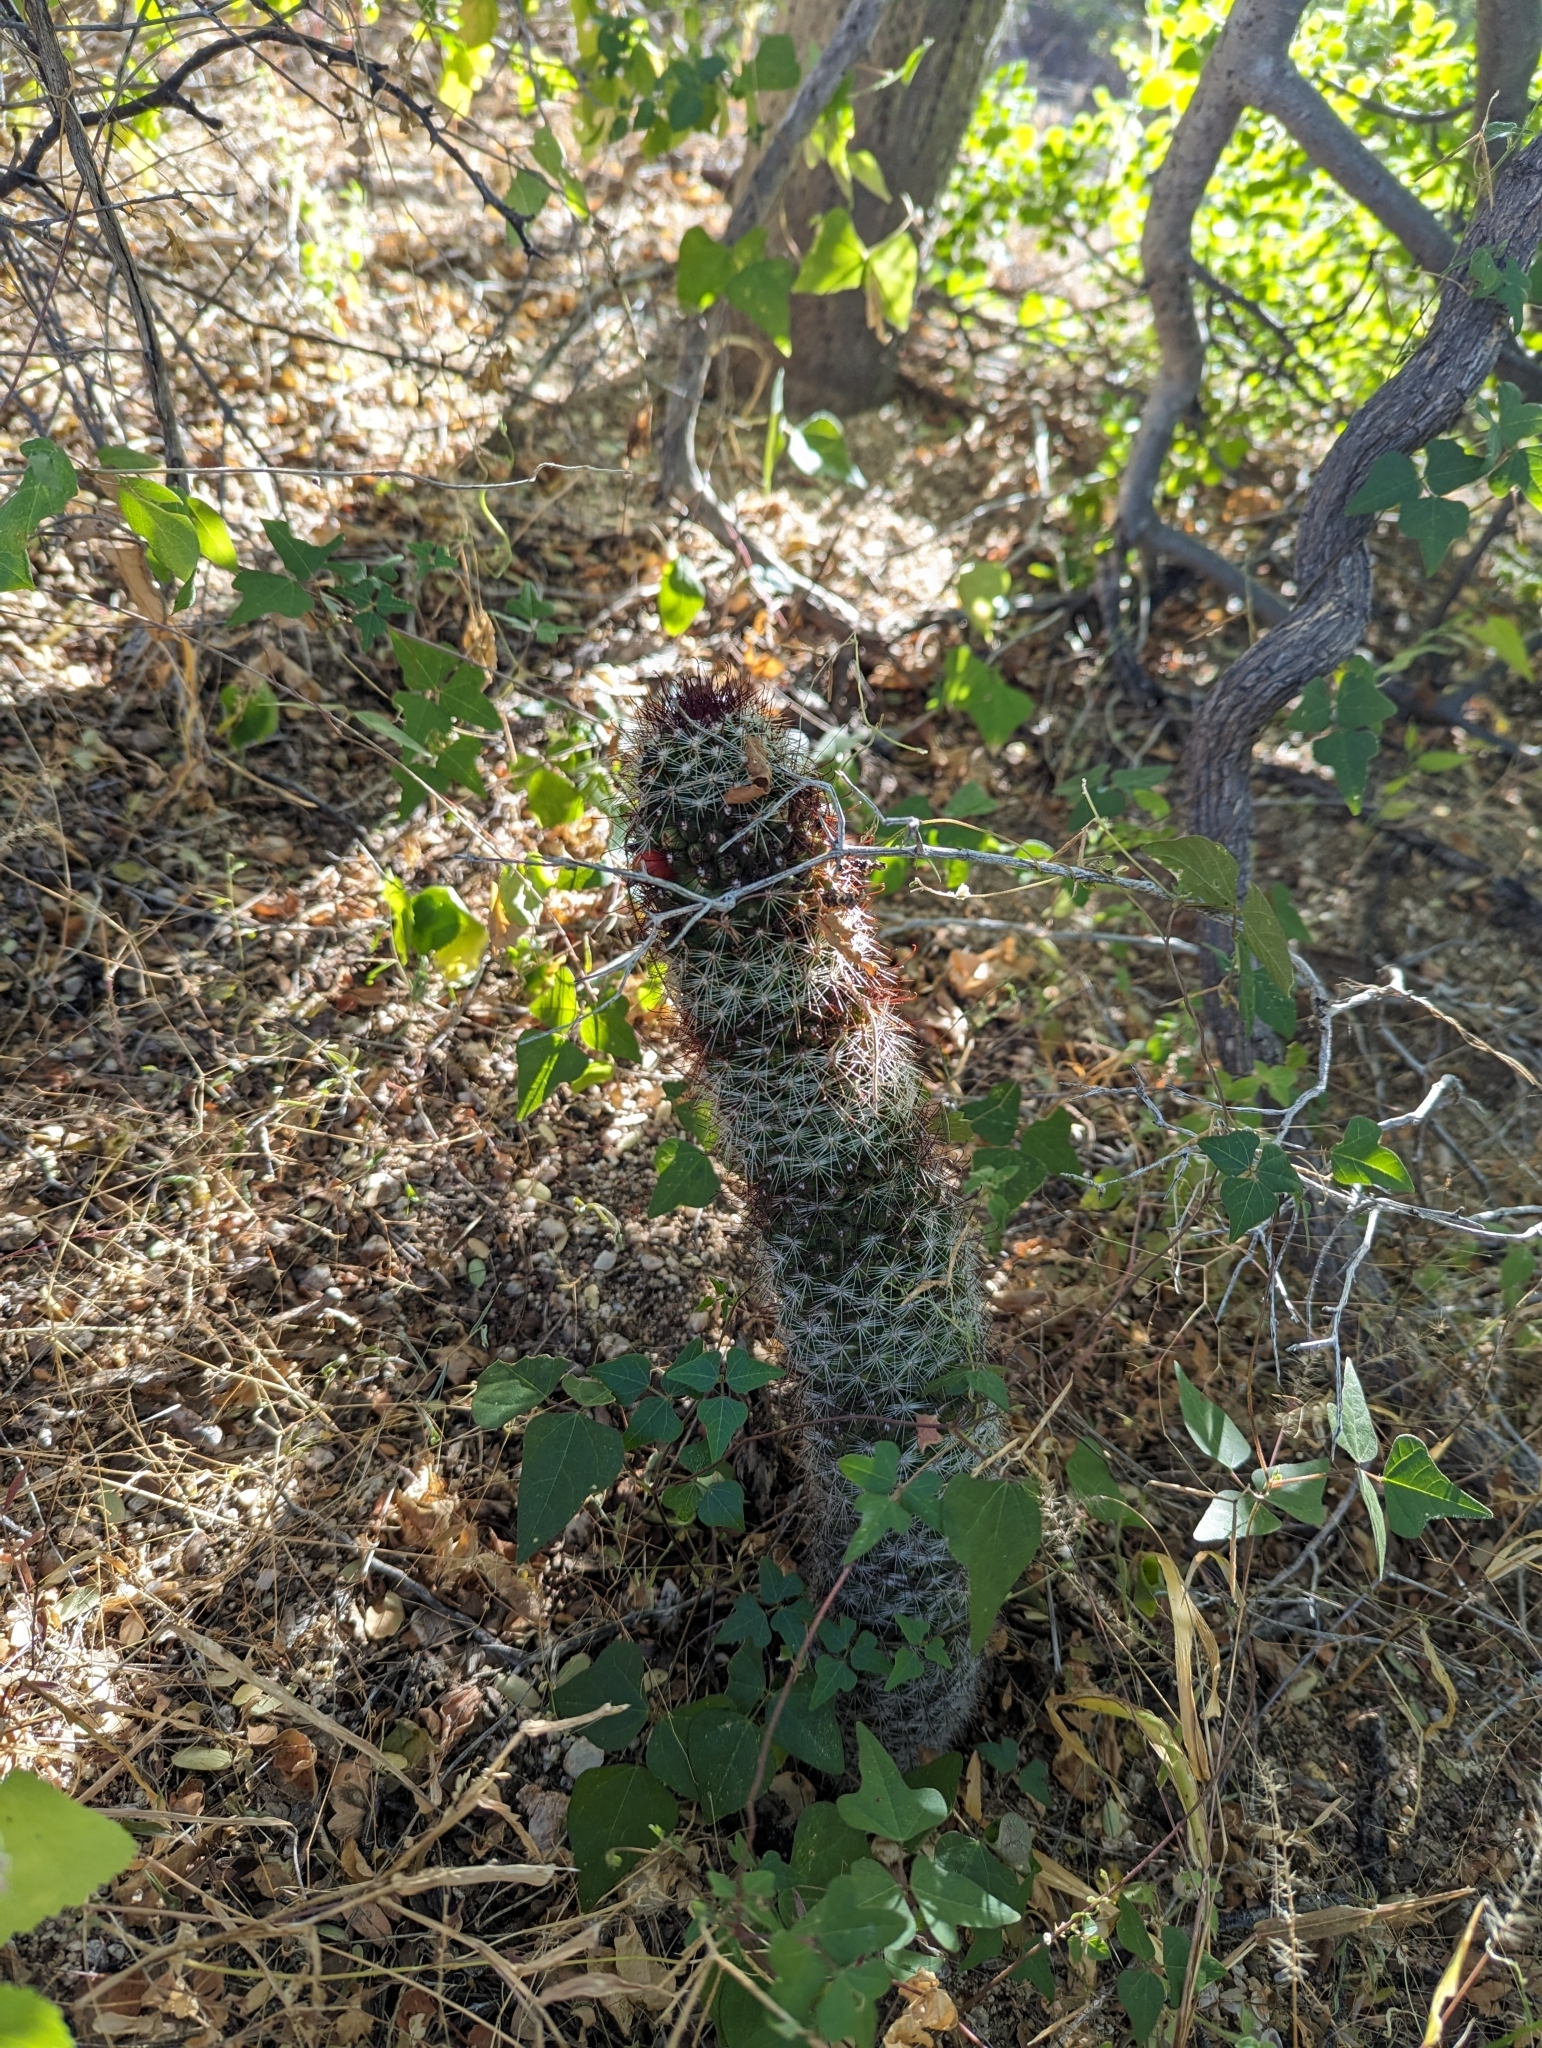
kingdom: Plantae
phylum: Tracheophyta
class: Magnoliopsida
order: Caryophyllales
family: Cactaceae
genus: Cochemiea
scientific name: Cochemiea phitauiana
